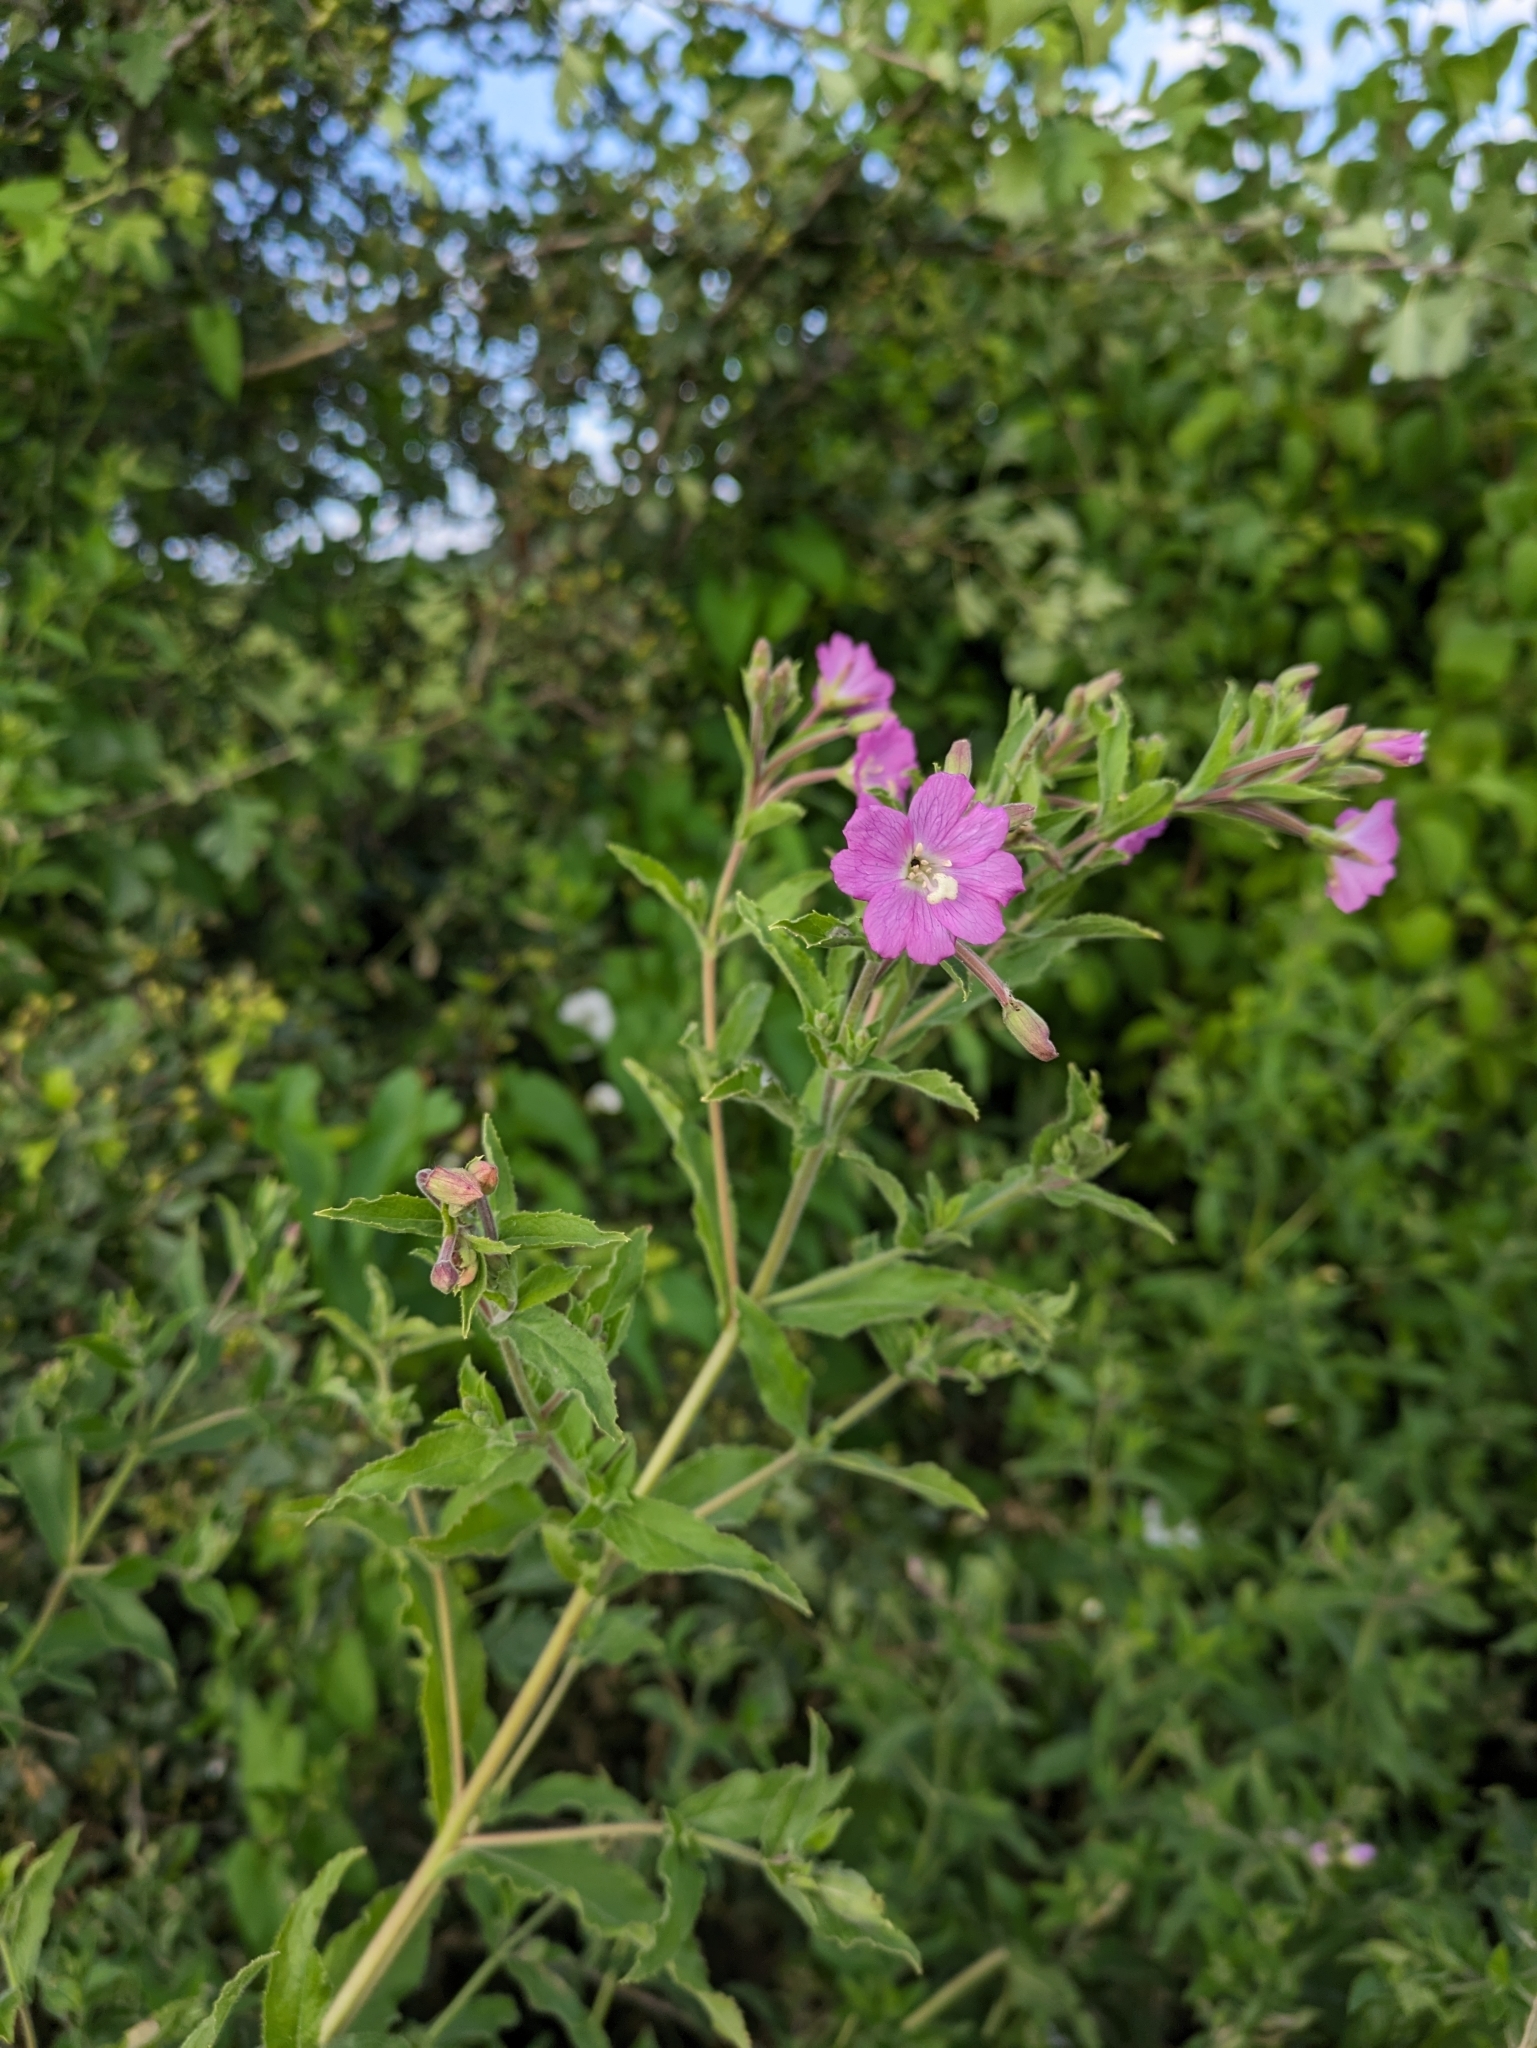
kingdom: Plantae
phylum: Tracheophyta
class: Magnoliopsida
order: Myrtales
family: Onagraceae
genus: Epilobium
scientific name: Epilobium hirsutum
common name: Great willowherb
